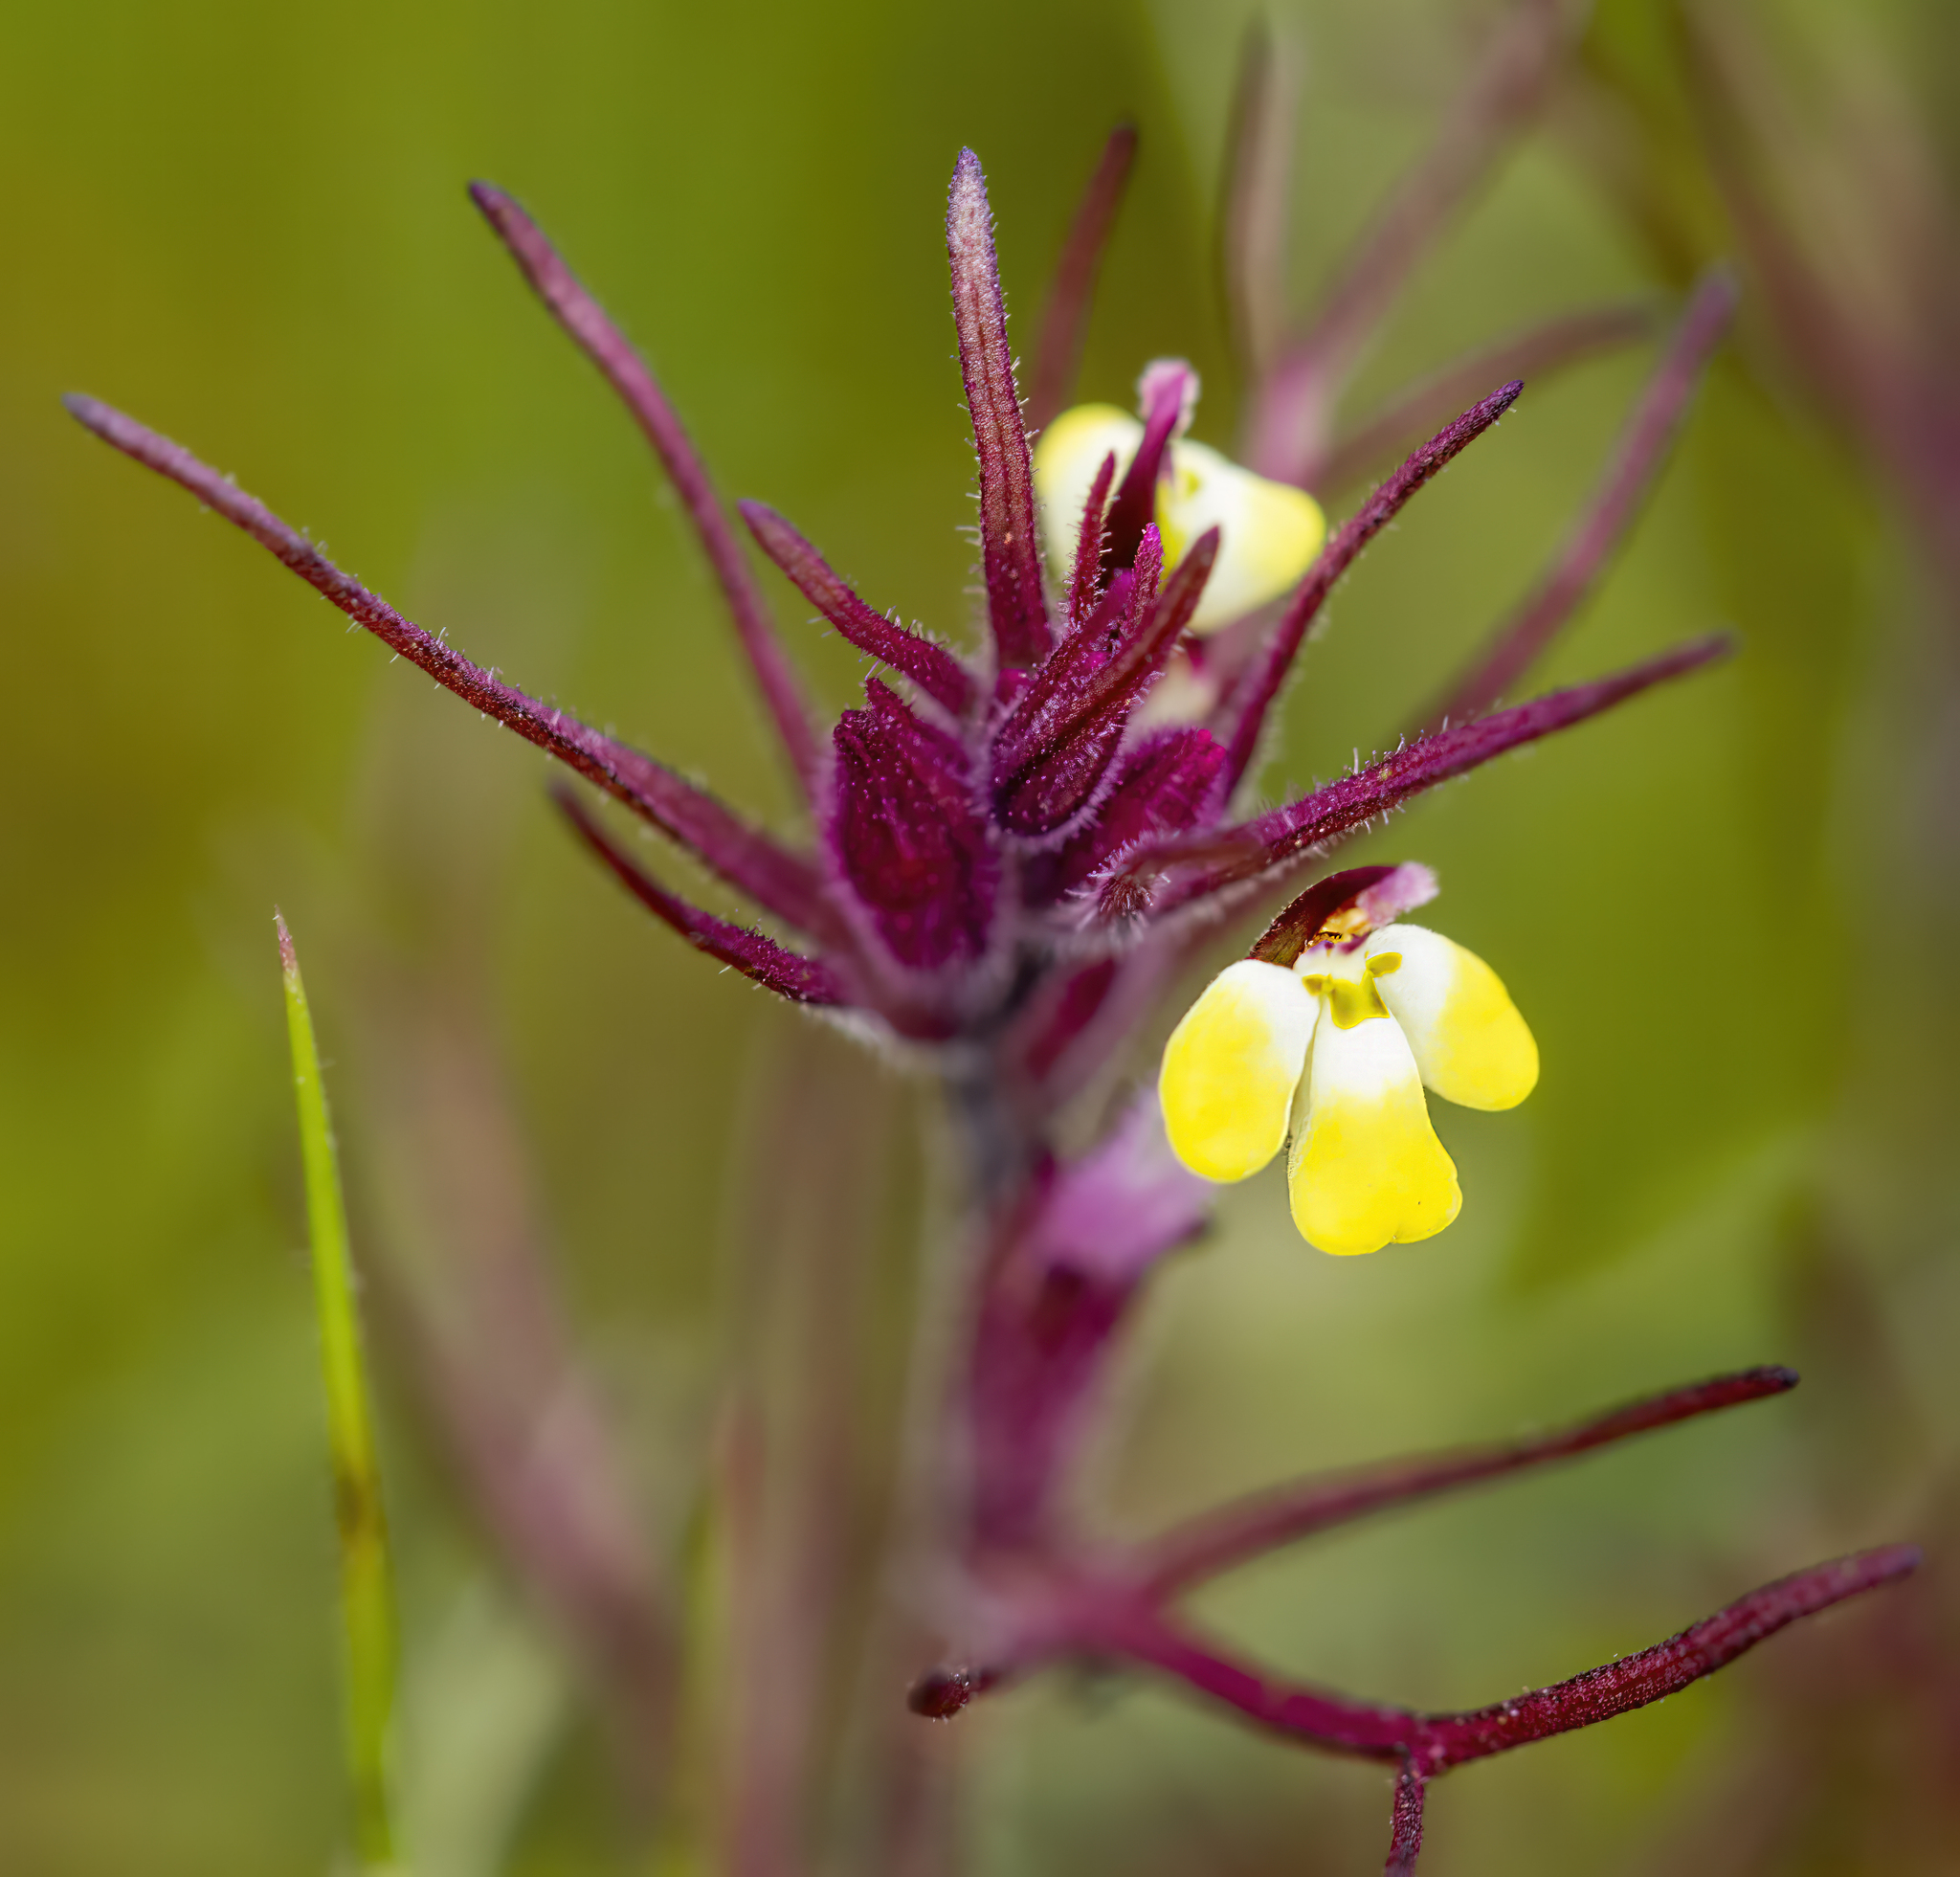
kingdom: Plantae
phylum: Tracheophyta
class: Magnoliopsida
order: Lamiales
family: Orobanchaceae
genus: Triphysaria
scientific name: Triphysaria eriantha
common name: Johnny-tuck
